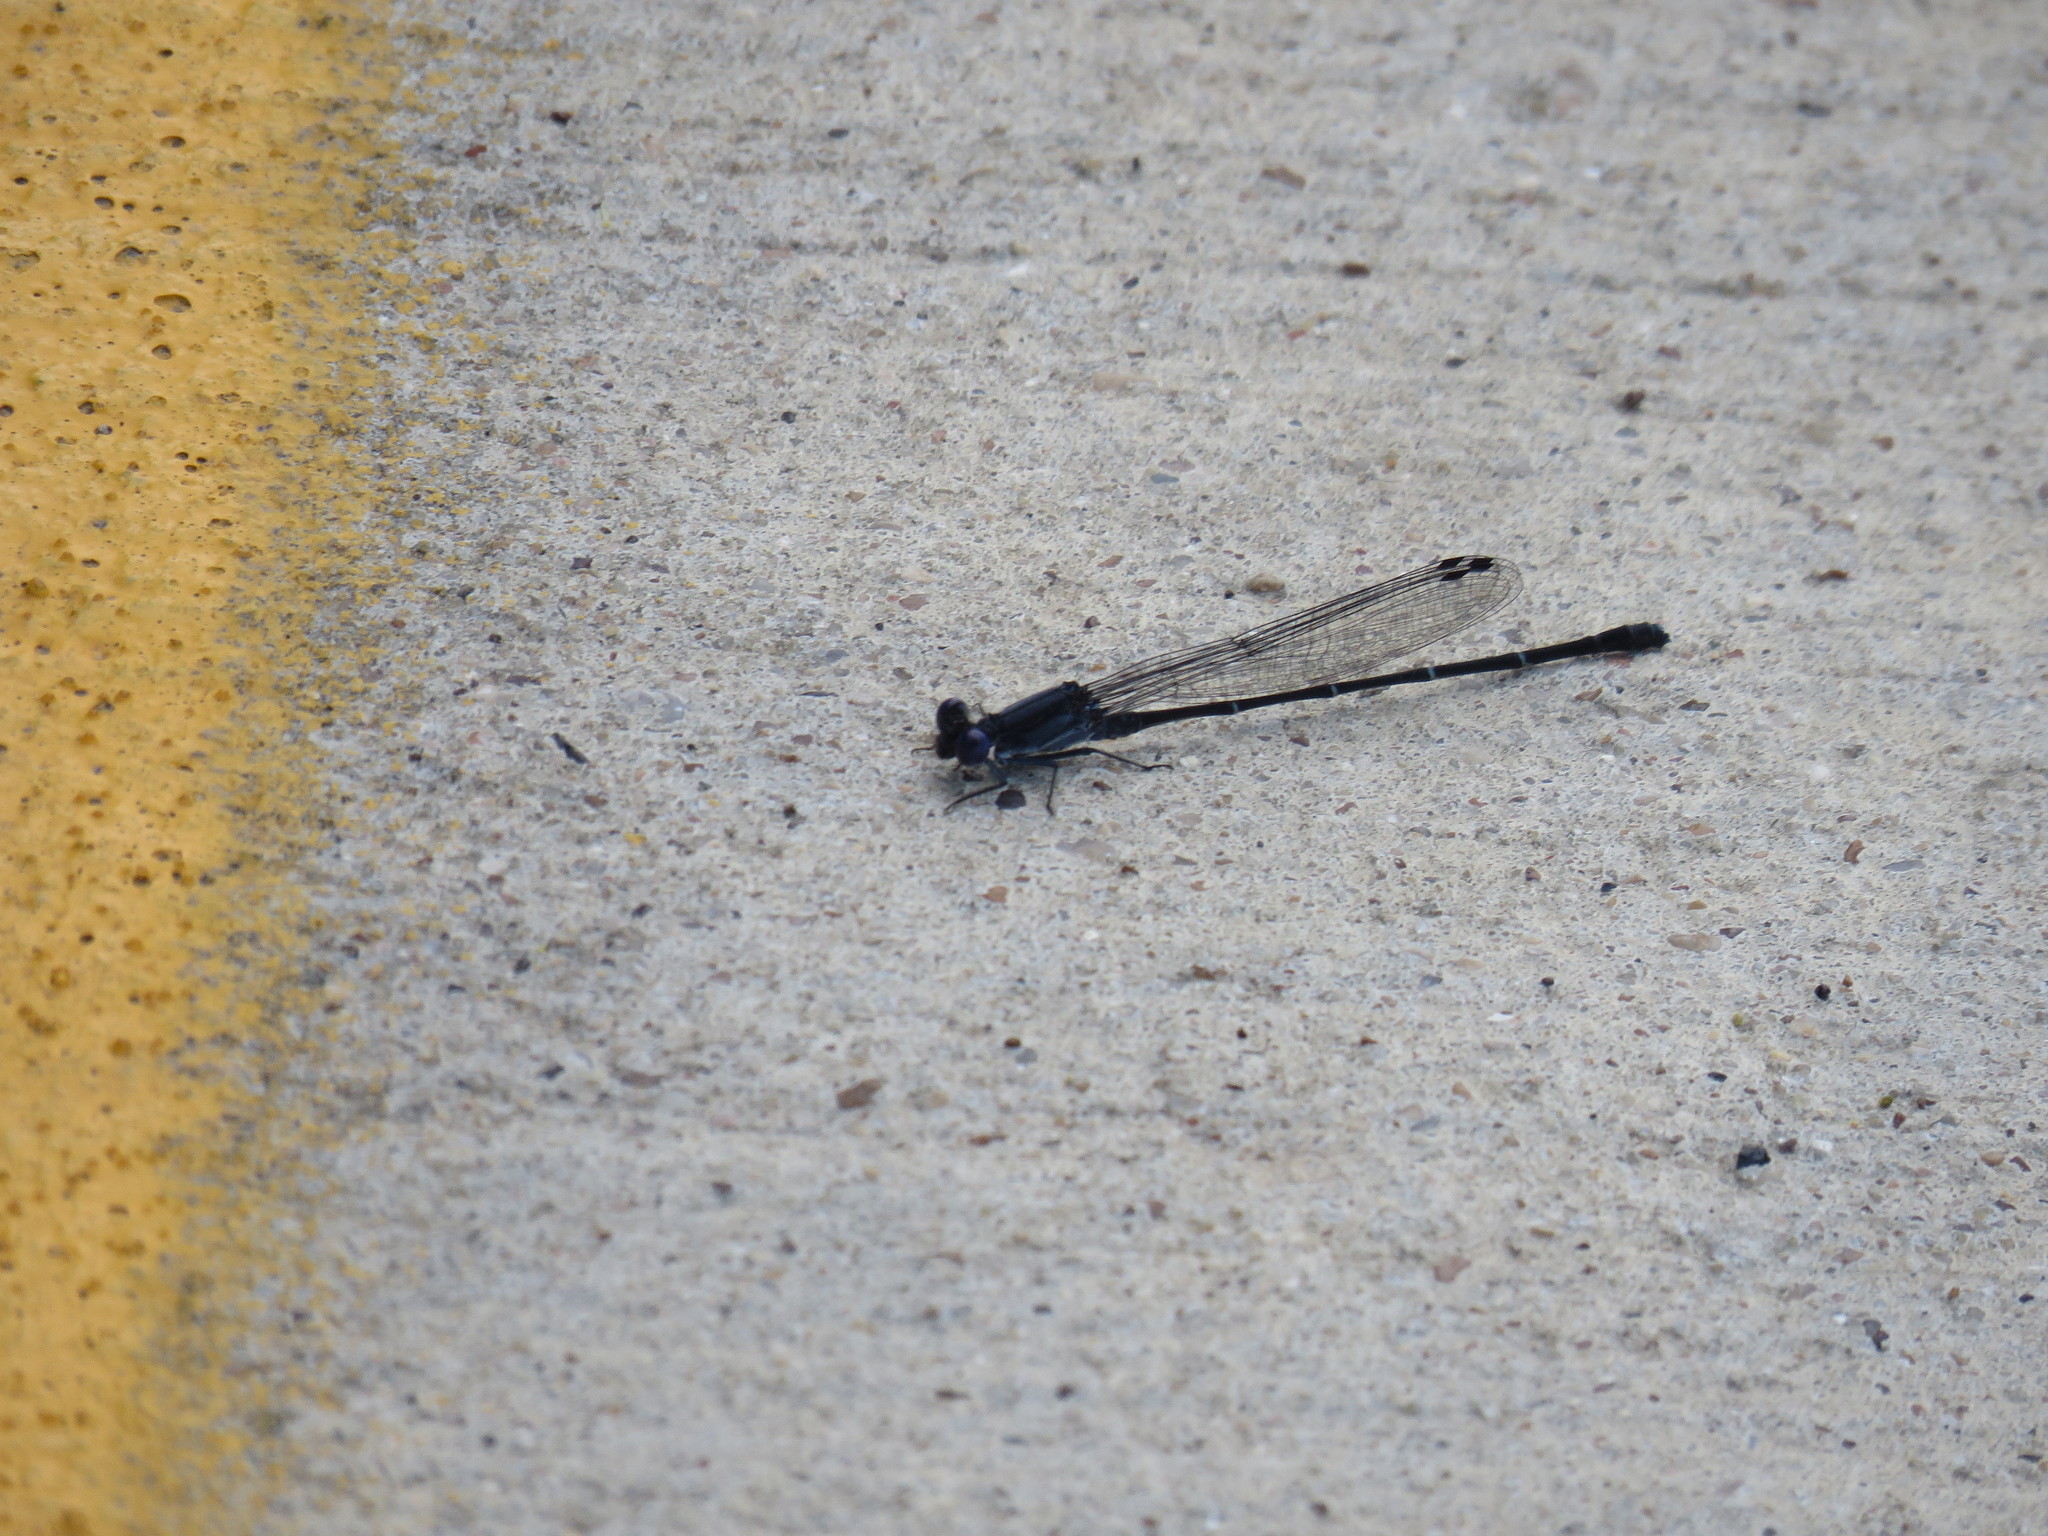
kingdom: Animalia
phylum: Arthropoda
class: Insecta
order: Odonata
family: Coenagrionidae
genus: Argia
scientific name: Argia translata
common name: Dusky dancer
